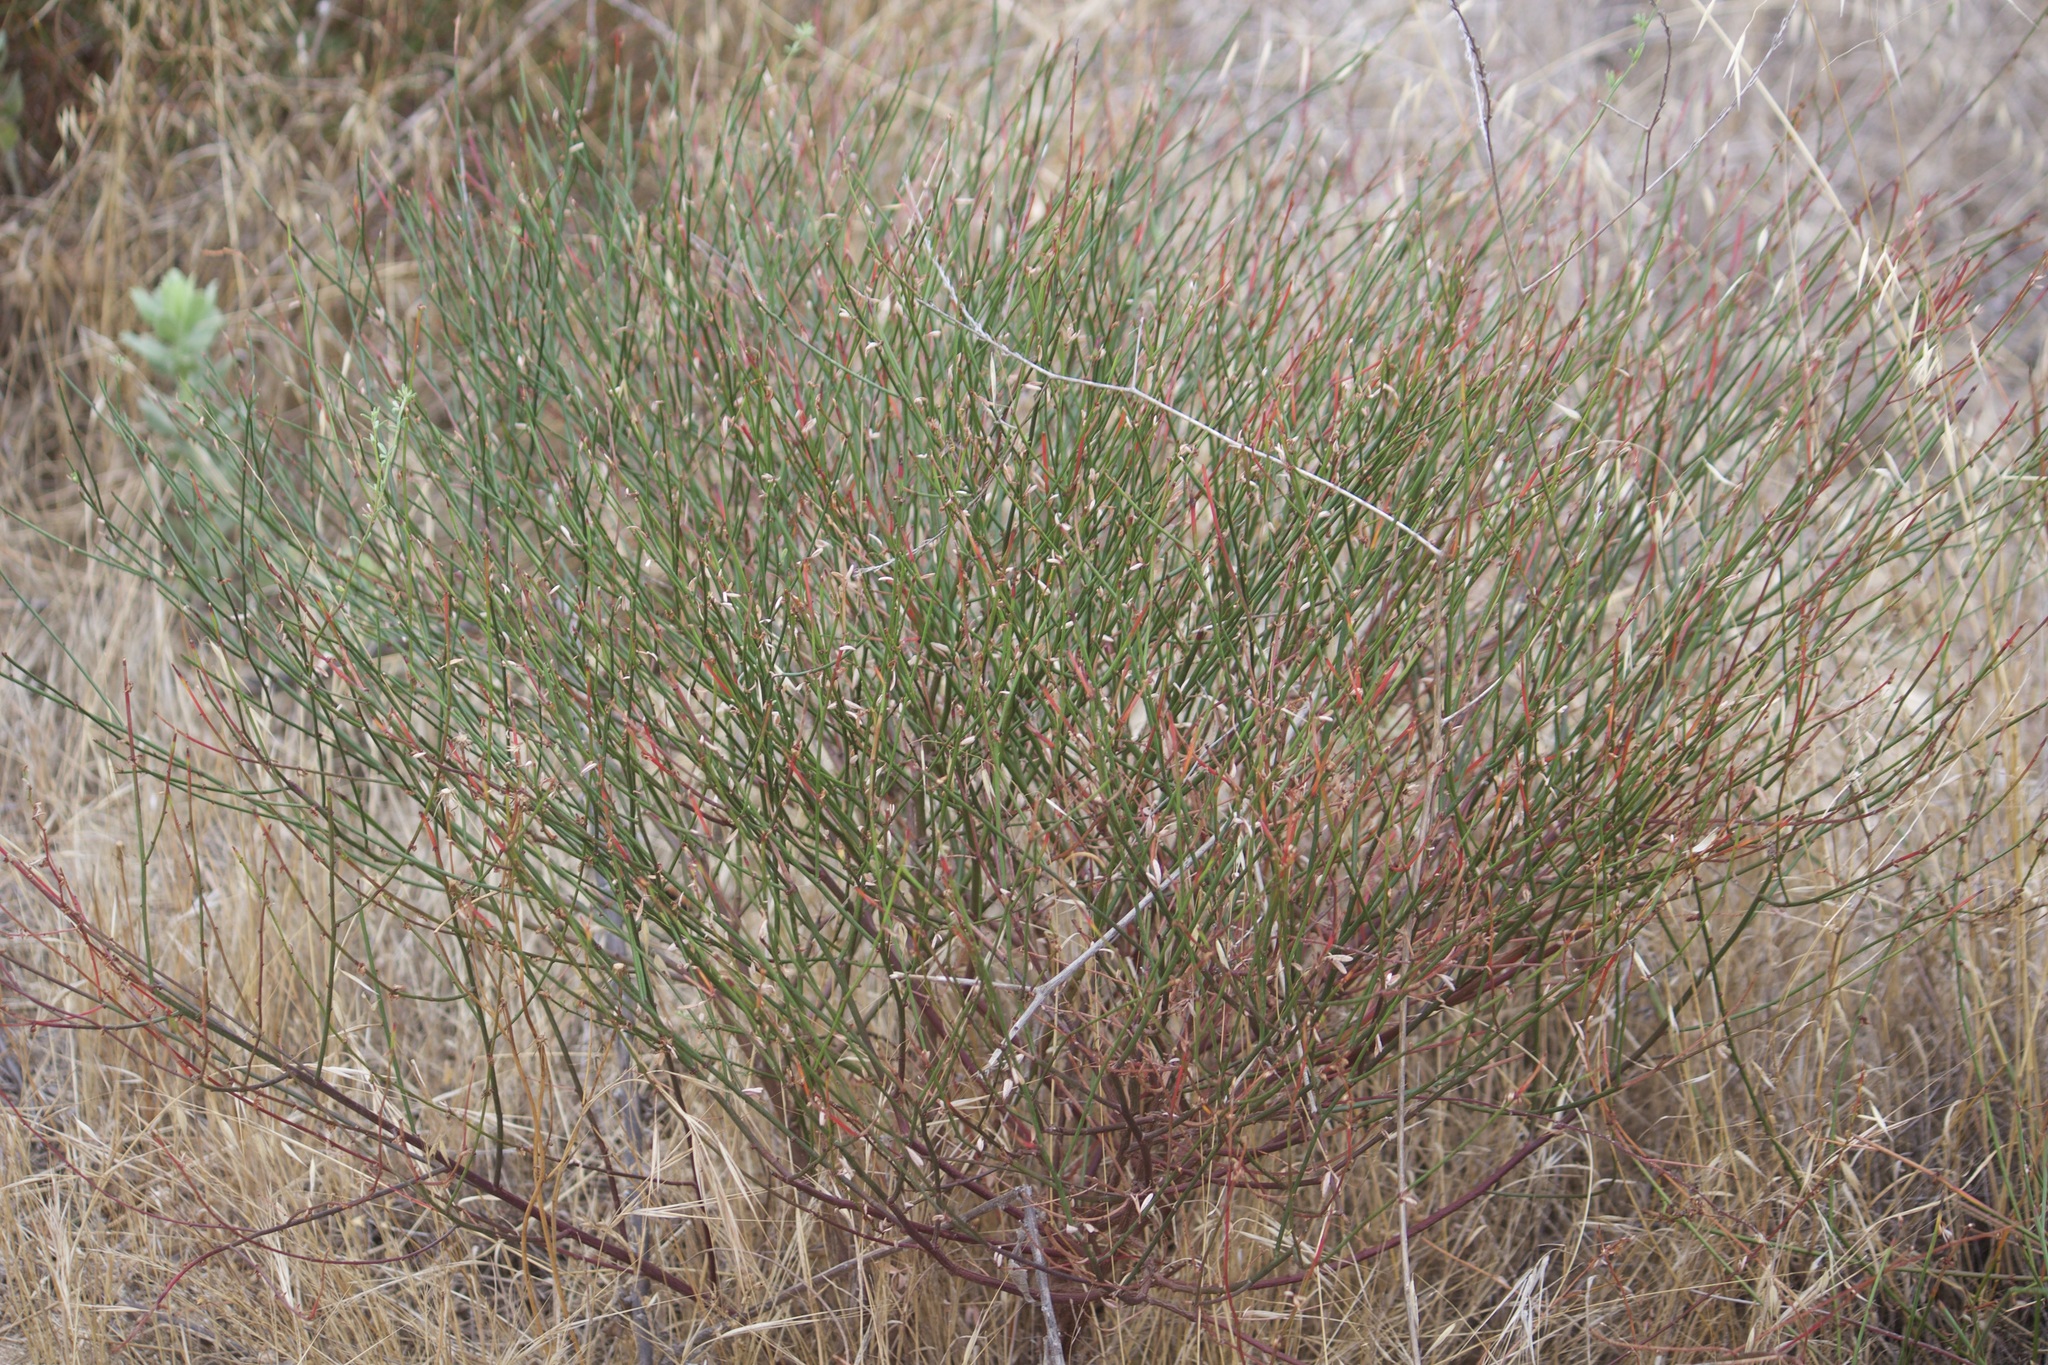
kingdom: Plantae
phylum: Tracheophyta
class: Magnoliopsida
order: Fabales
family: Fabaceae
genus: Acmispon
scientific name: Acmispon glaber
